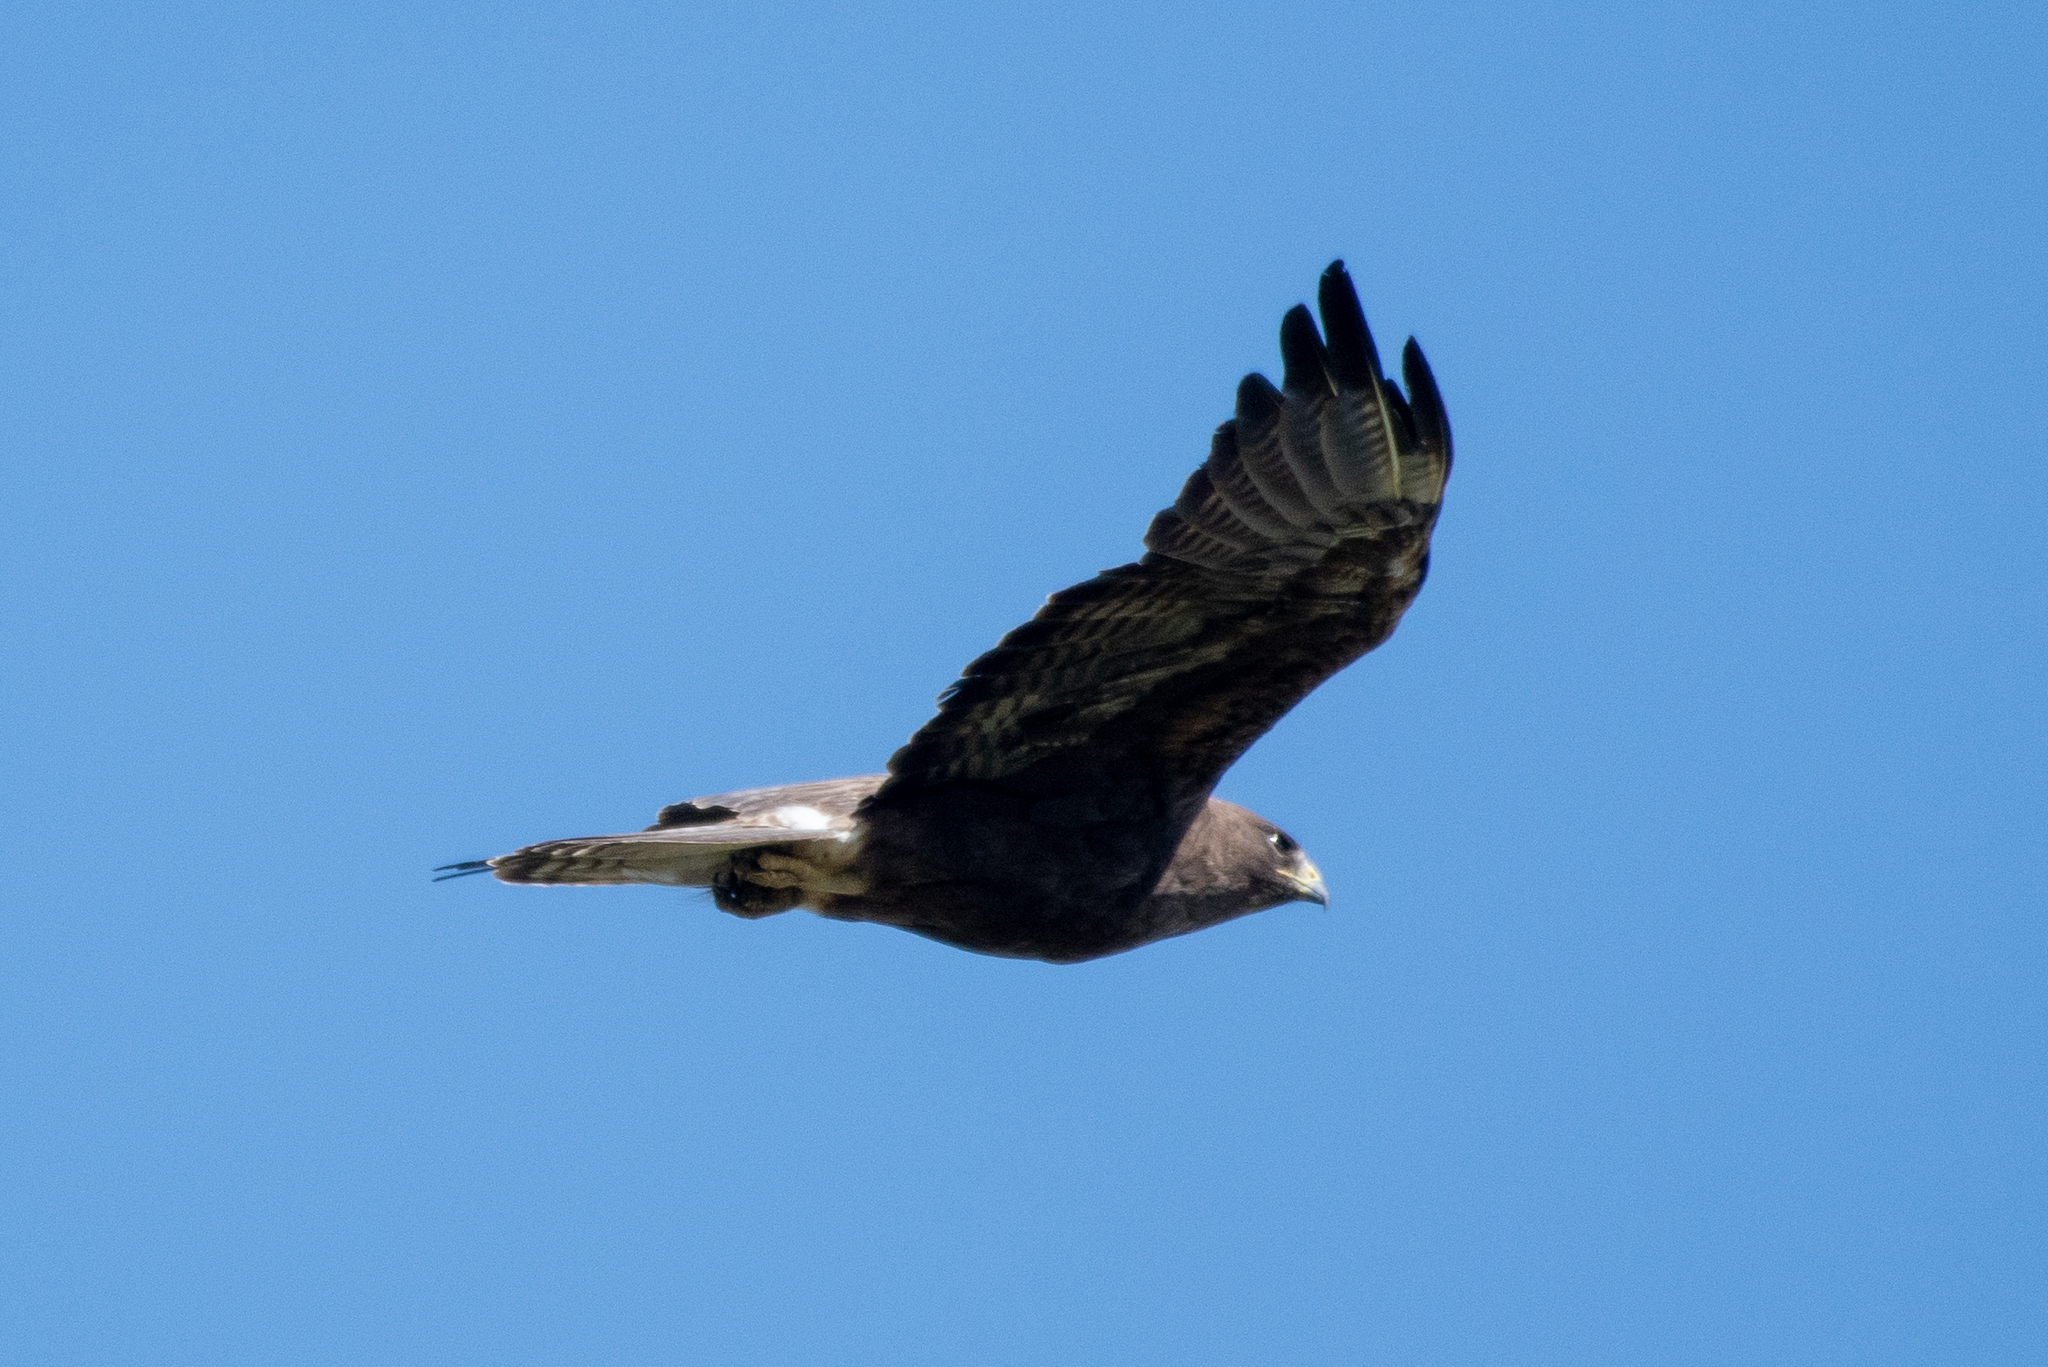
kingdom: Animalia
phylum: Chordata
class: Aves
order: Accipitriformes
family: Accipitridae
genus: Buteo
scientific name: Buteo swainsoni
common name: Swainson's hawk
